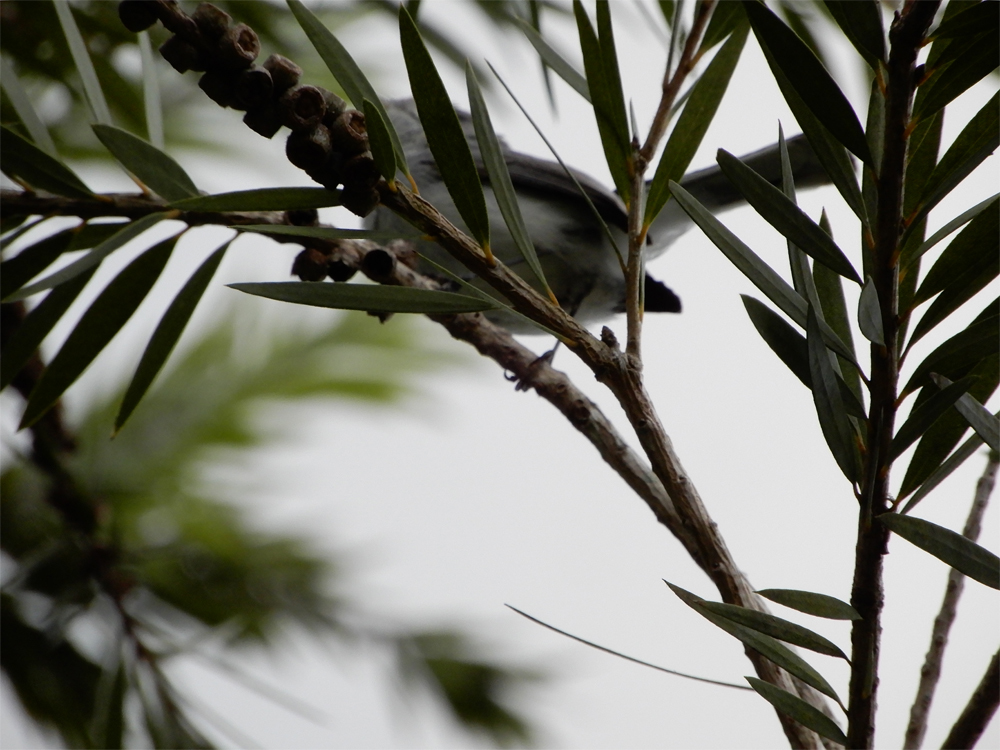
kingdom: Animalia
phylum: Chordata
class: Aves
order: Passeriformes
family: Polioptilidae
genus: Polioptila
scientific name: Polioptila caerulea
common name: Blue-gray gnatcatcher
